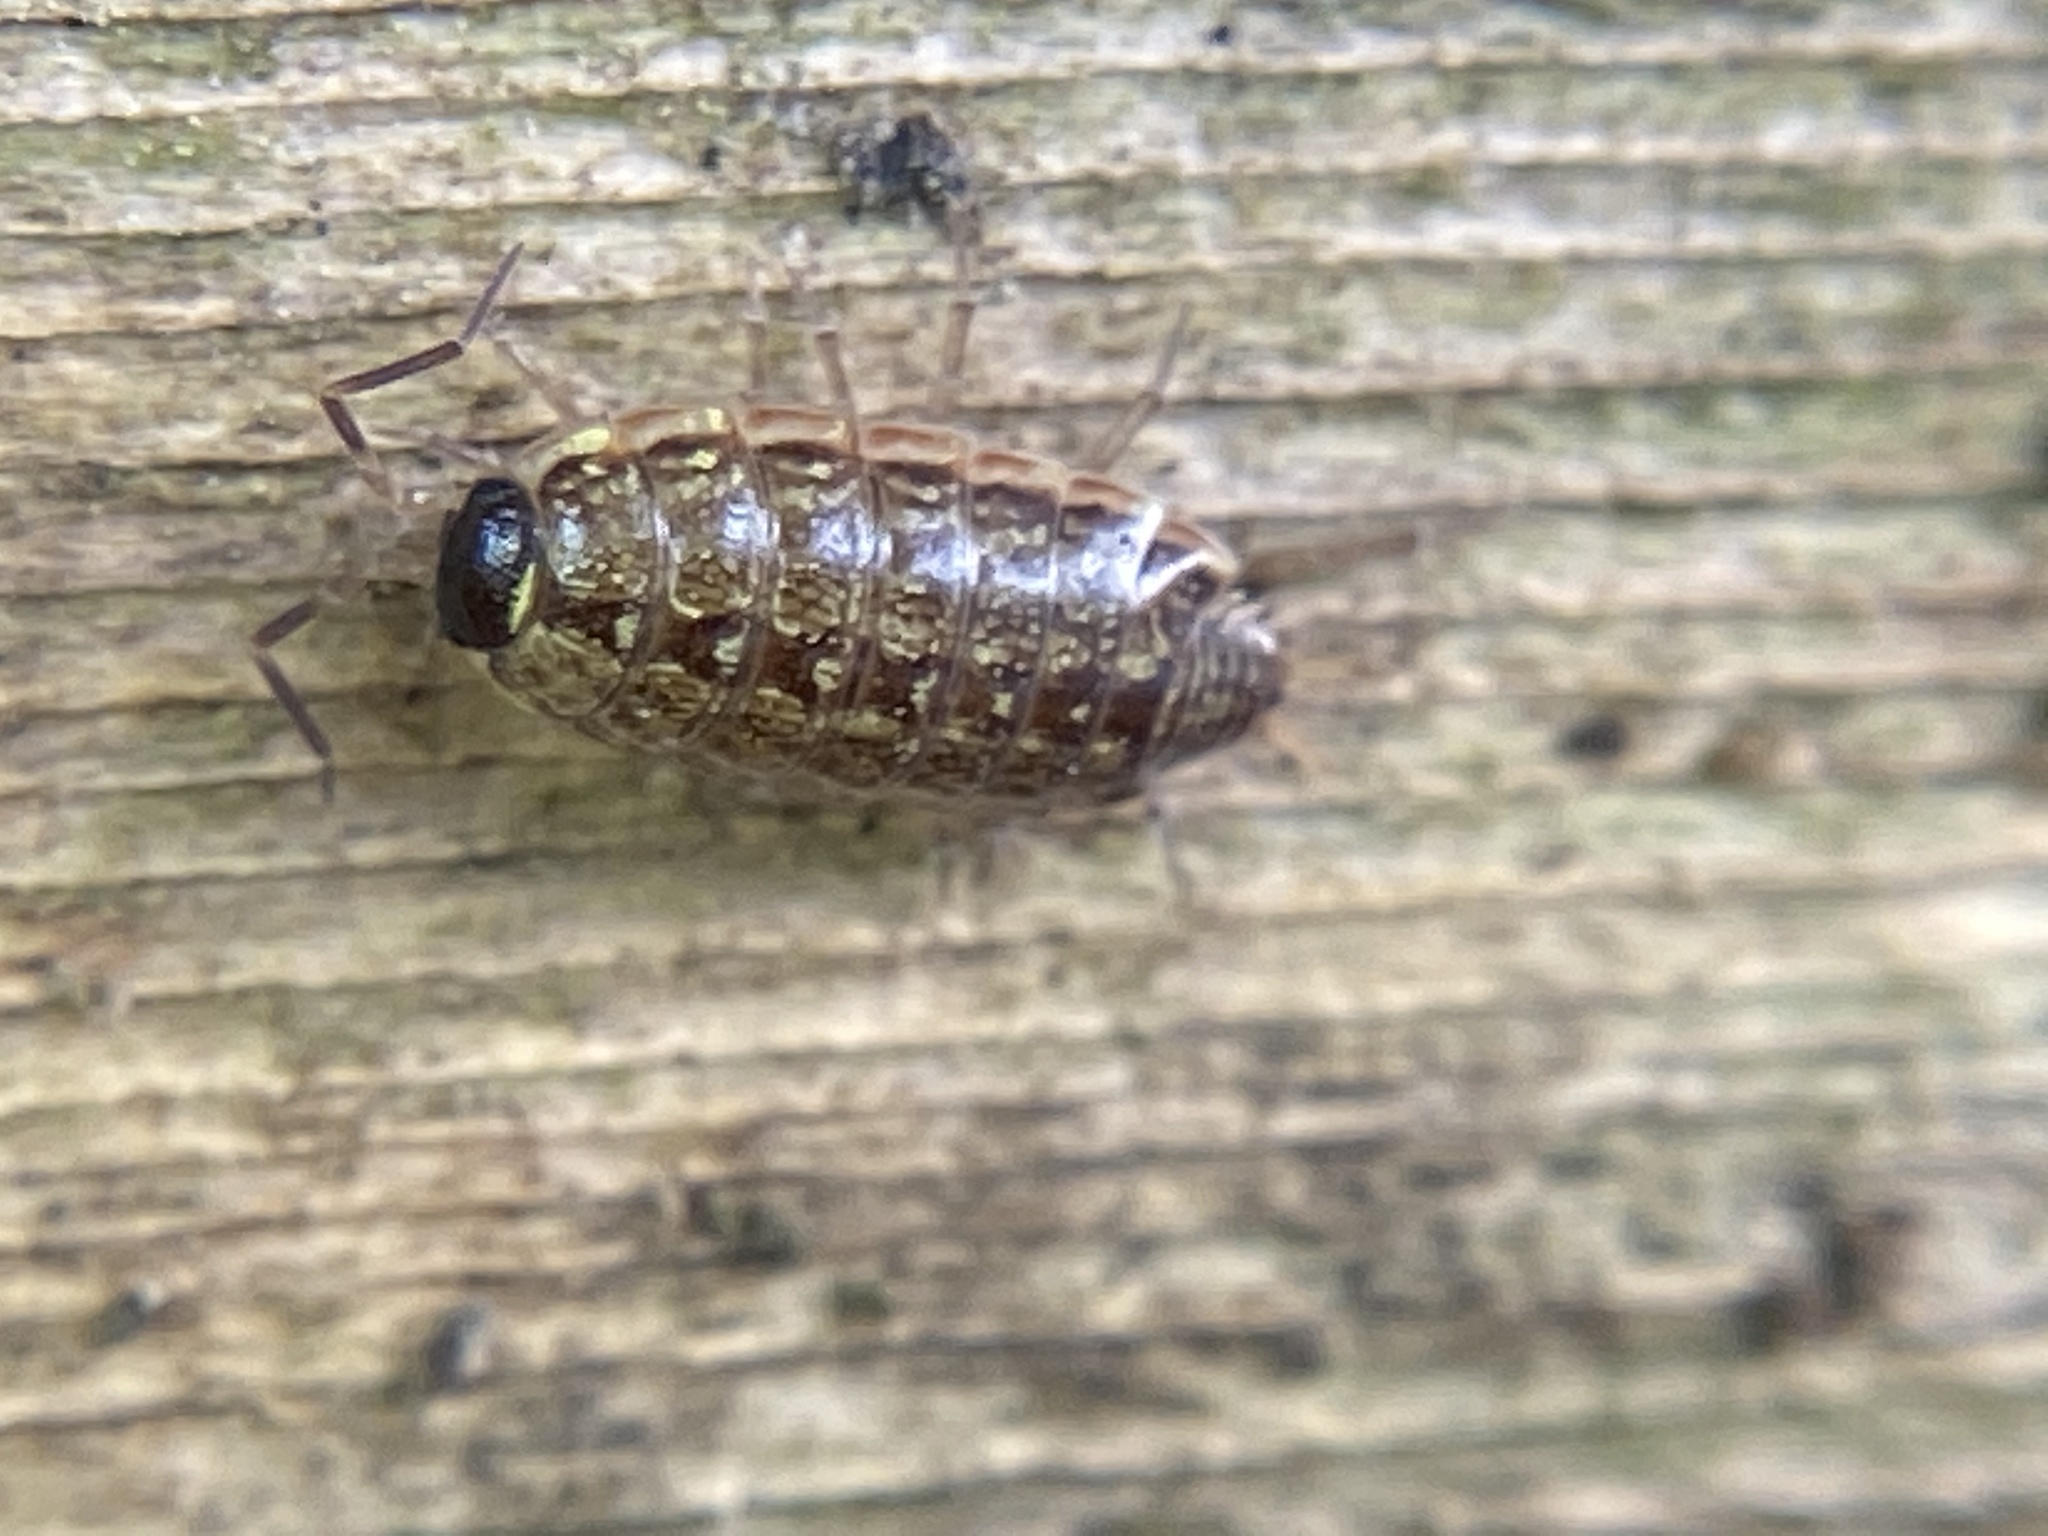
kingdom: Animalia
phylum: Arthropoda
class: Malacostraca
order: Isopoda
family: Philosciidae
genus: Philoscia
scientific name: Philoscia muscorum
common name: Common striped woodlouse
